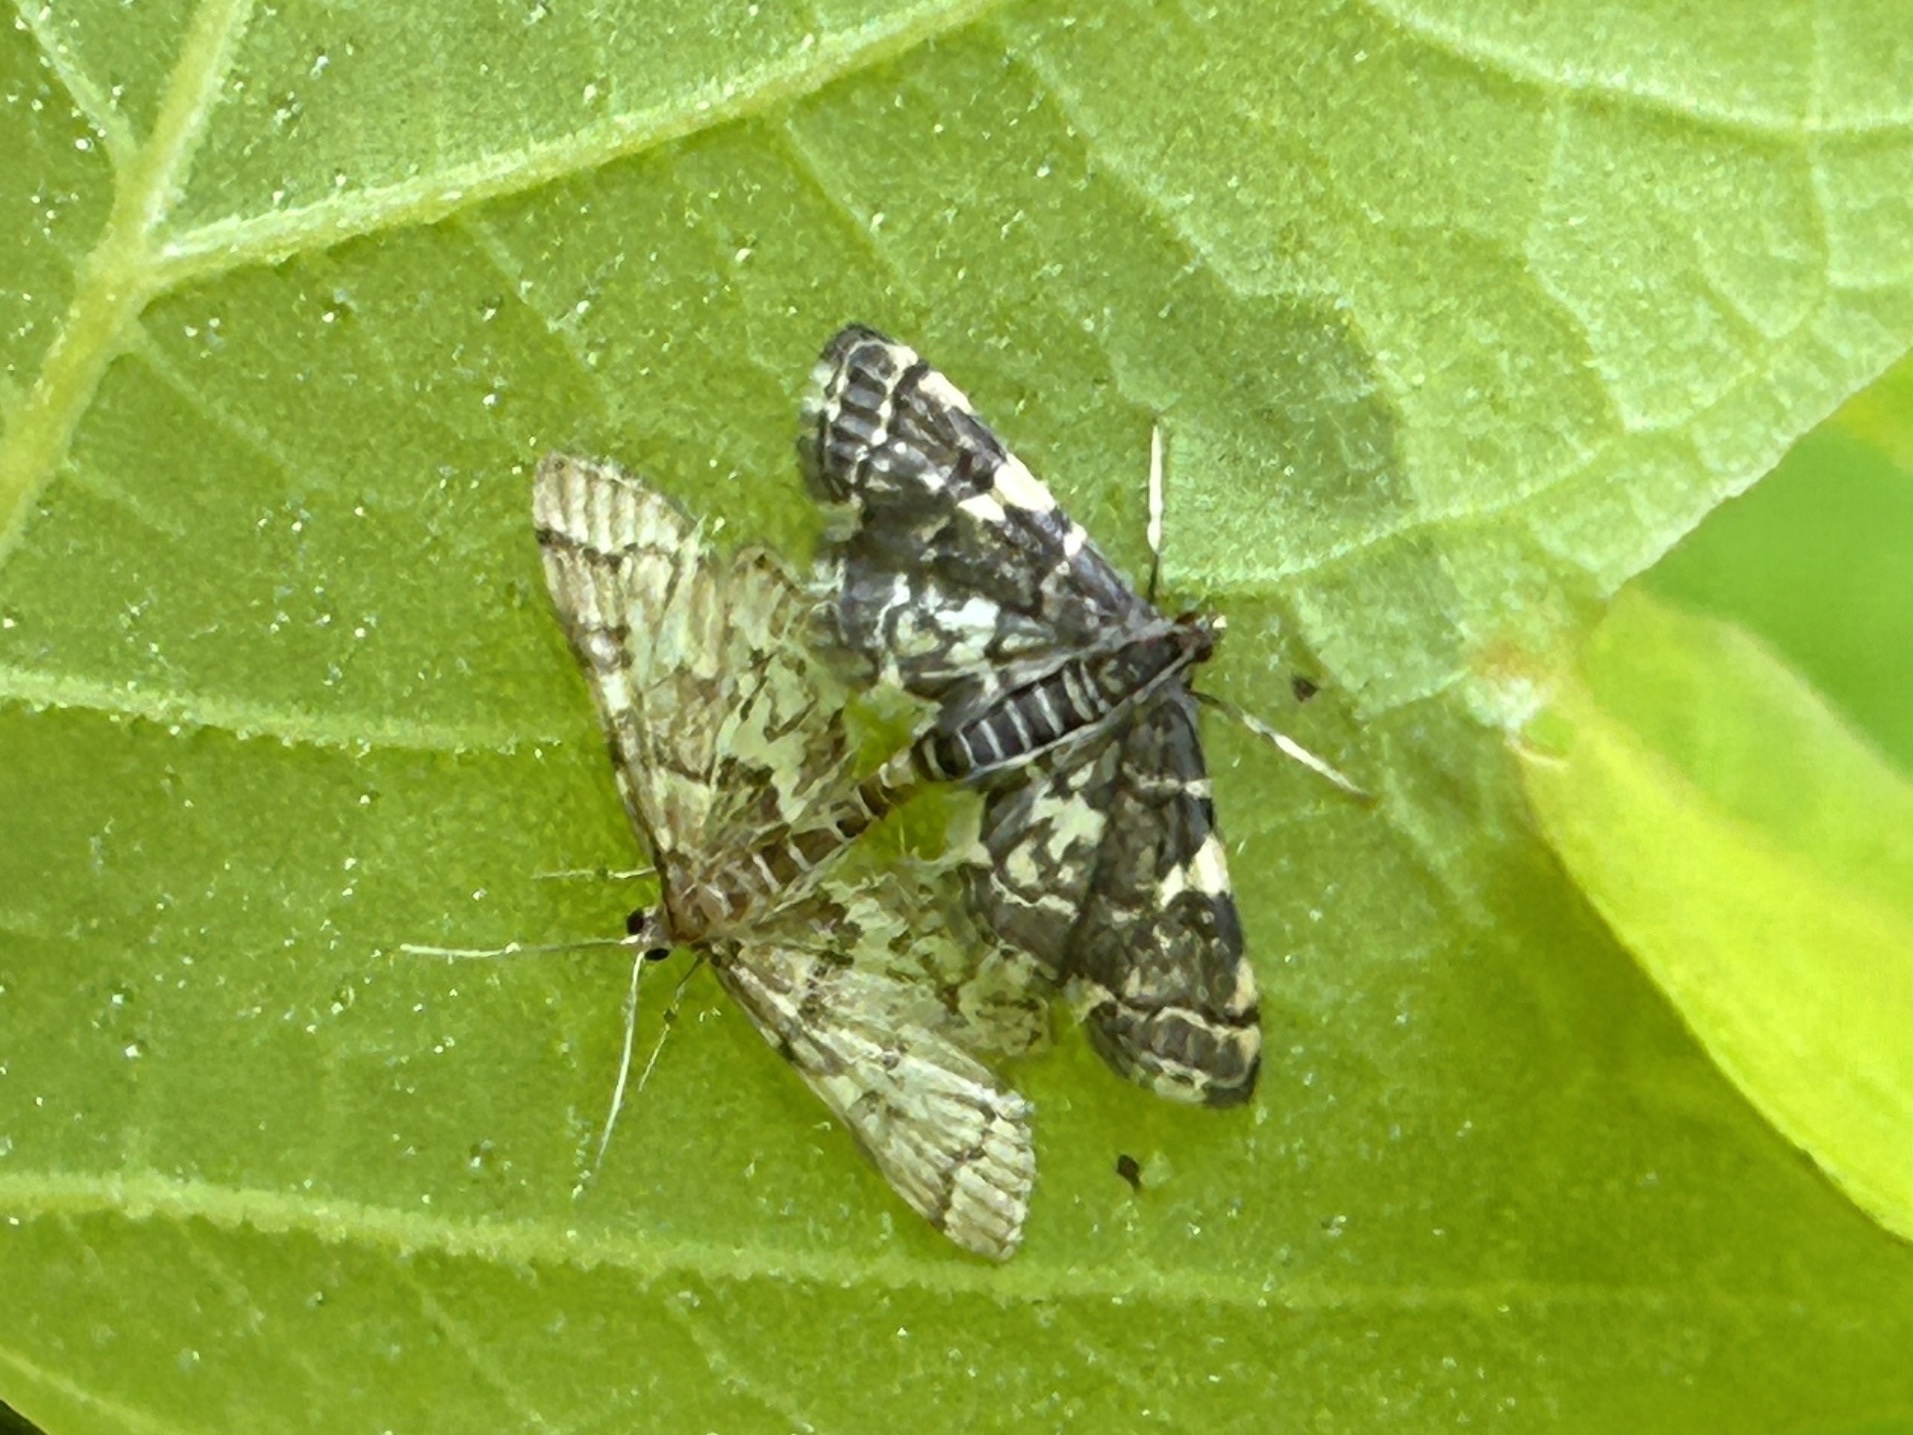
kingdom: Animalia
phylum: Arthropoda
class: Insecta
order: Lepidoptera
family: Crambidae
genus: Anageshna
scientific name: Anageshna primordialis
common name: Yellow-spotted webworm moth
